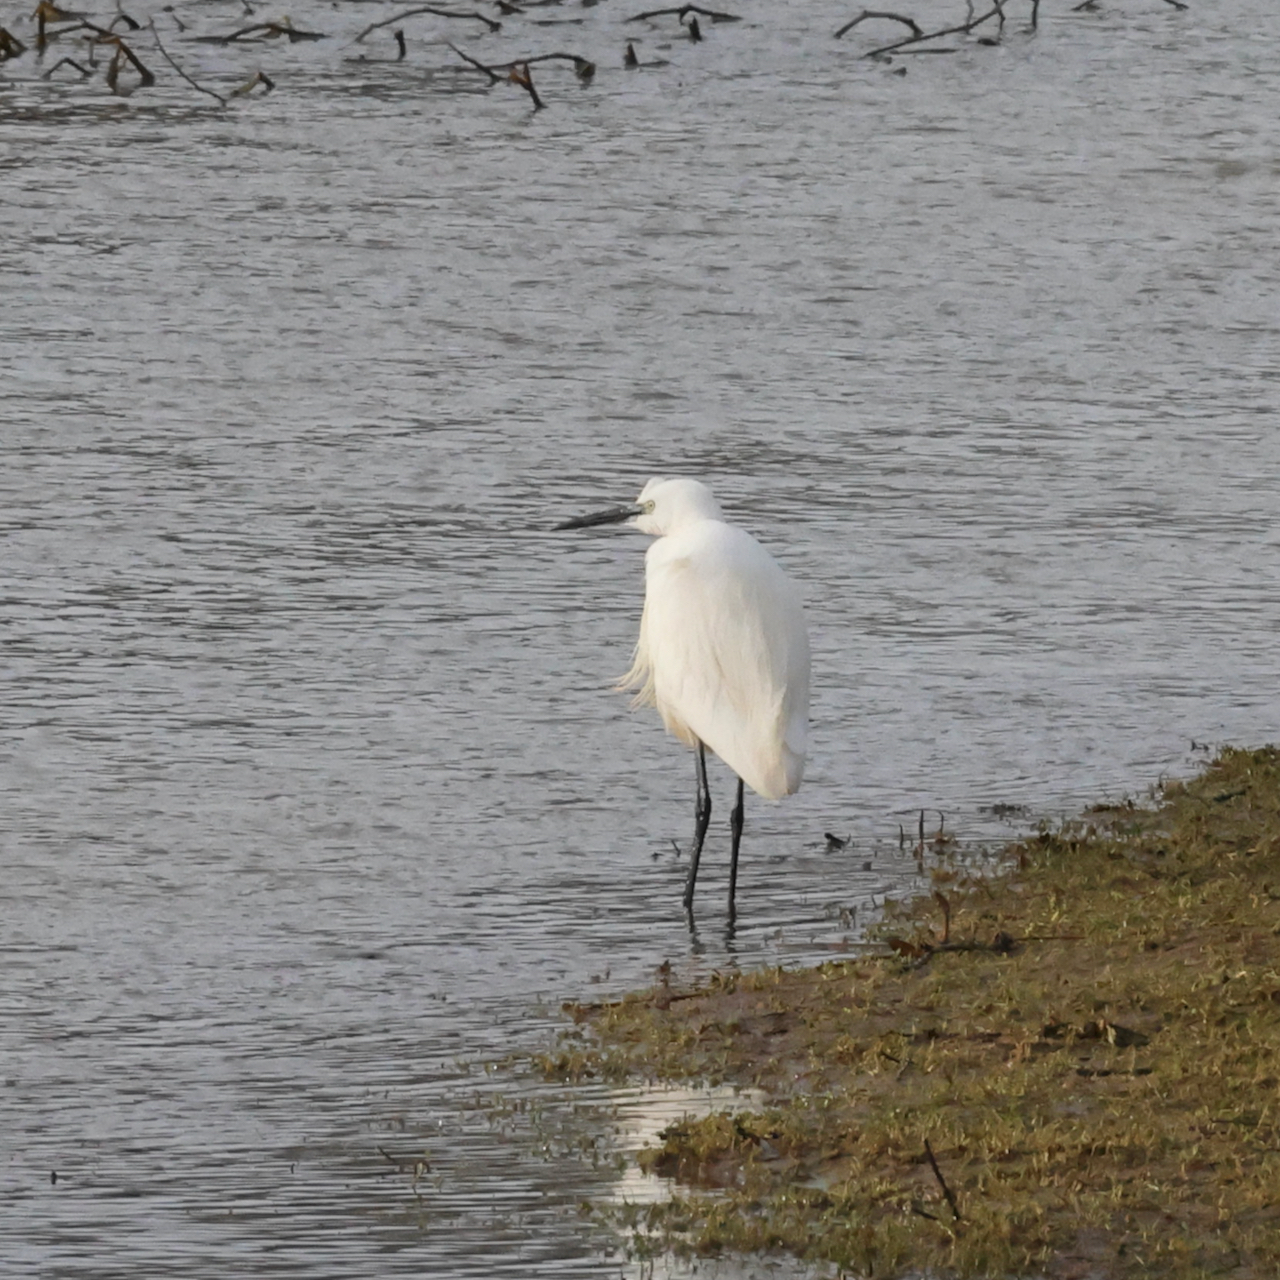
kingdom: Animalia
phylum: Chordata
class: Aves
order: Pelecaniformes
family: Ardeidae
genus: Egretta
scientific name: Egretta garzetta
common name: Little egret
